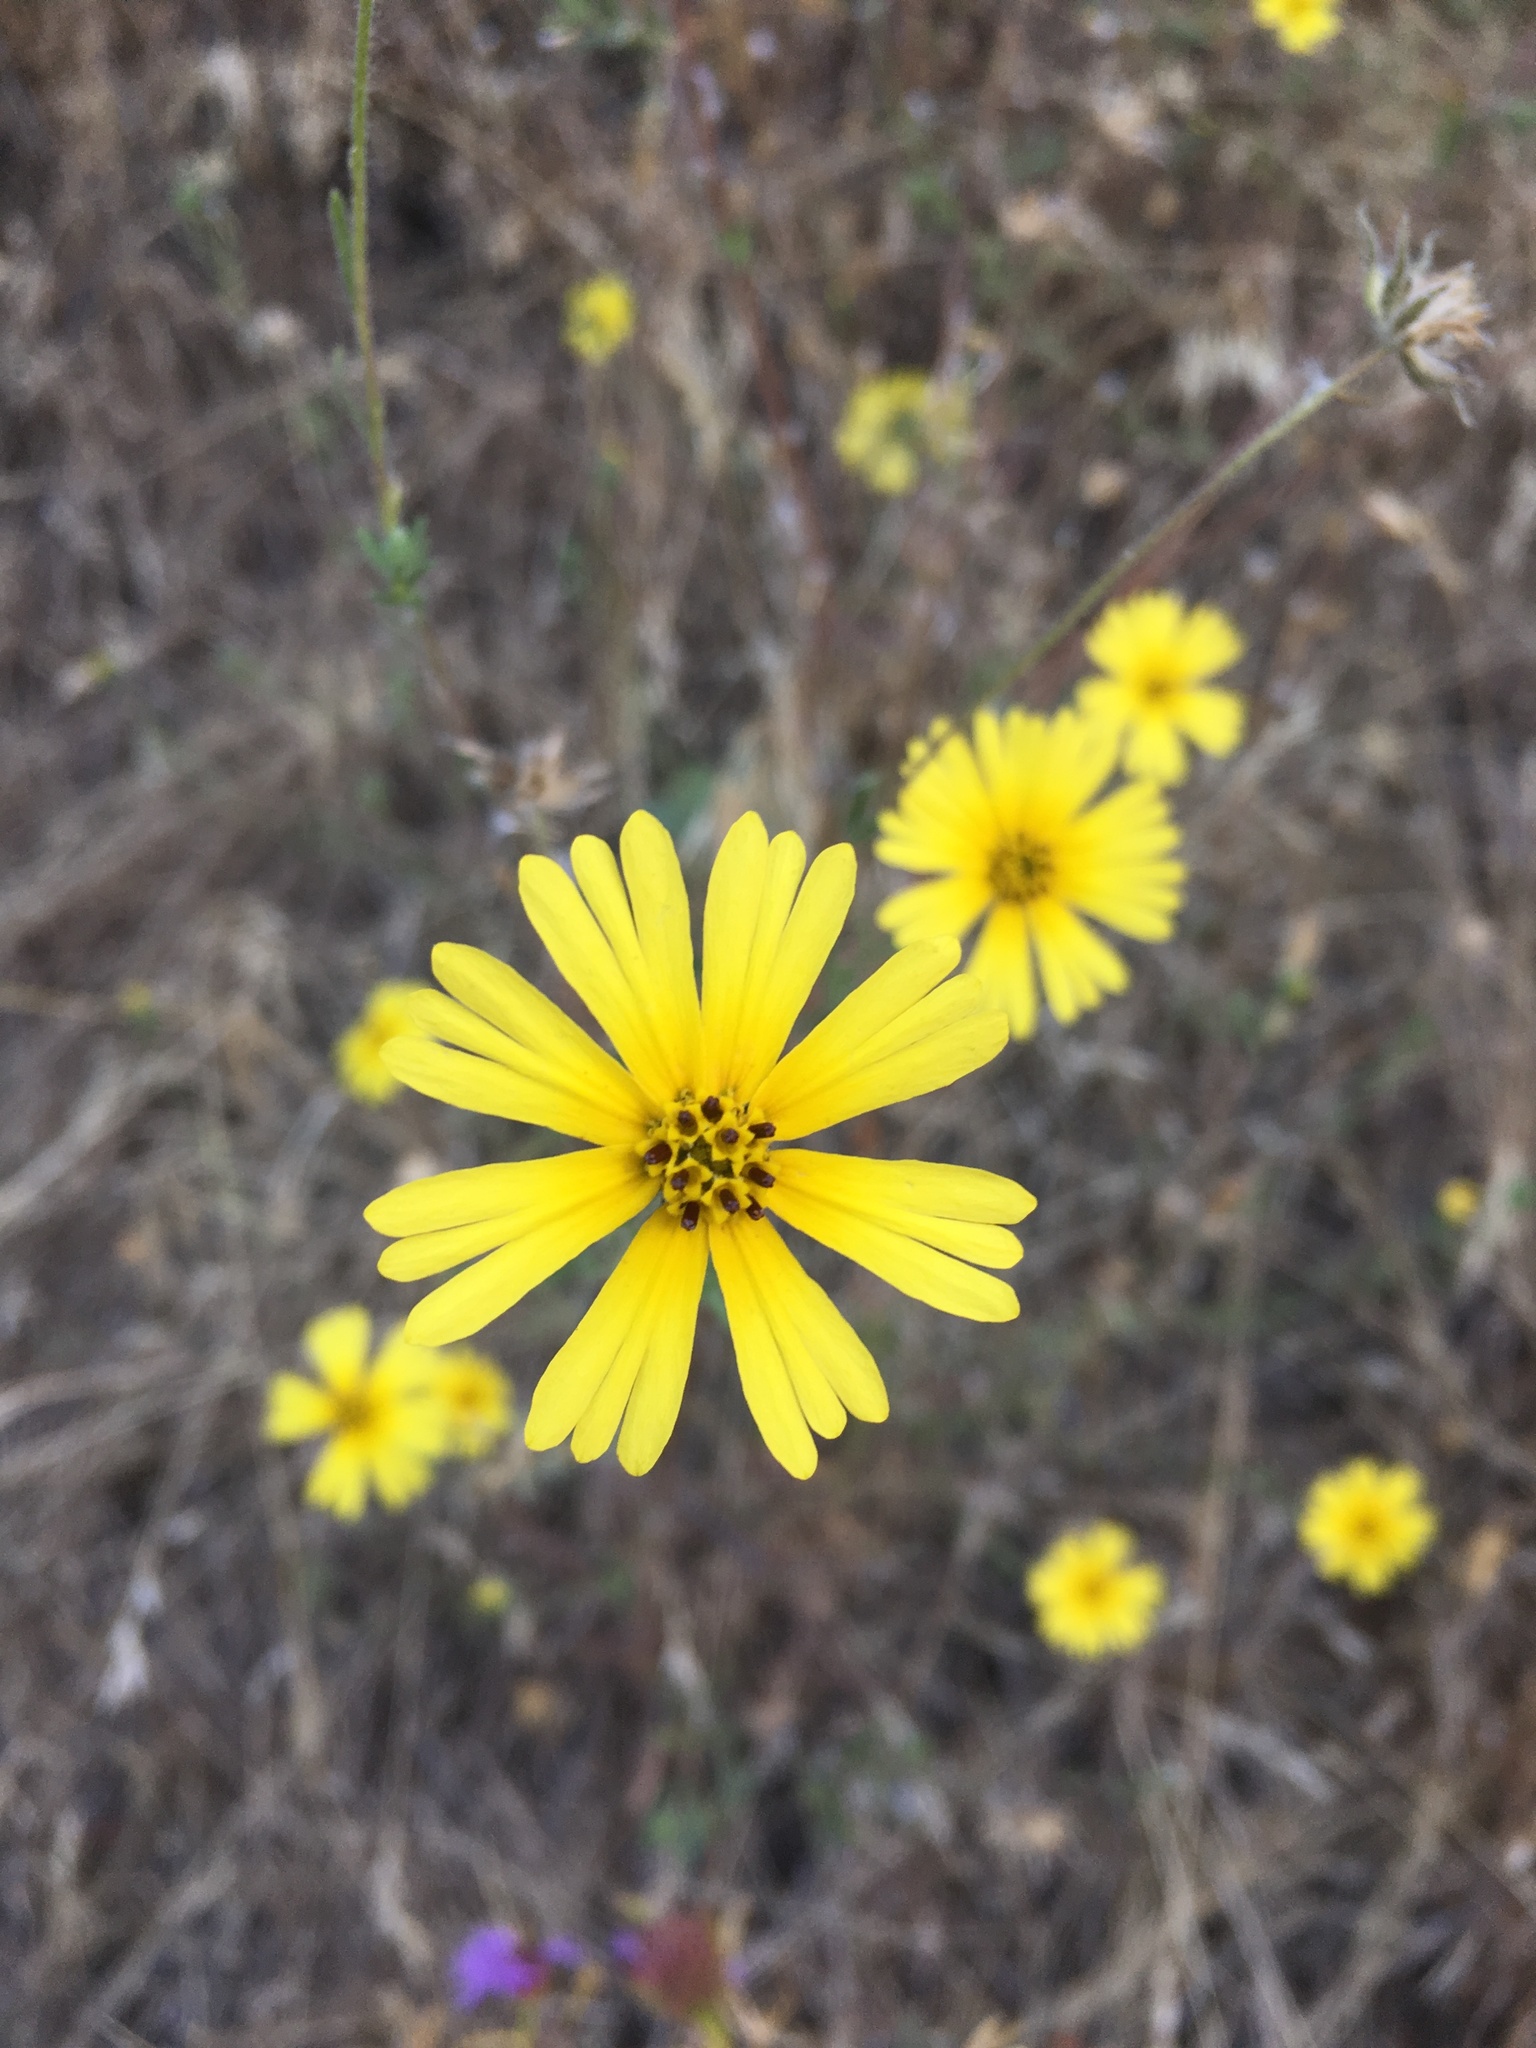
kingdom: Plantae
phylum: Tracheophyta
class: Magnoliopsida
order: Asterales
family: Asteraceae
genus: Madia
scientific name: Madia elegans
